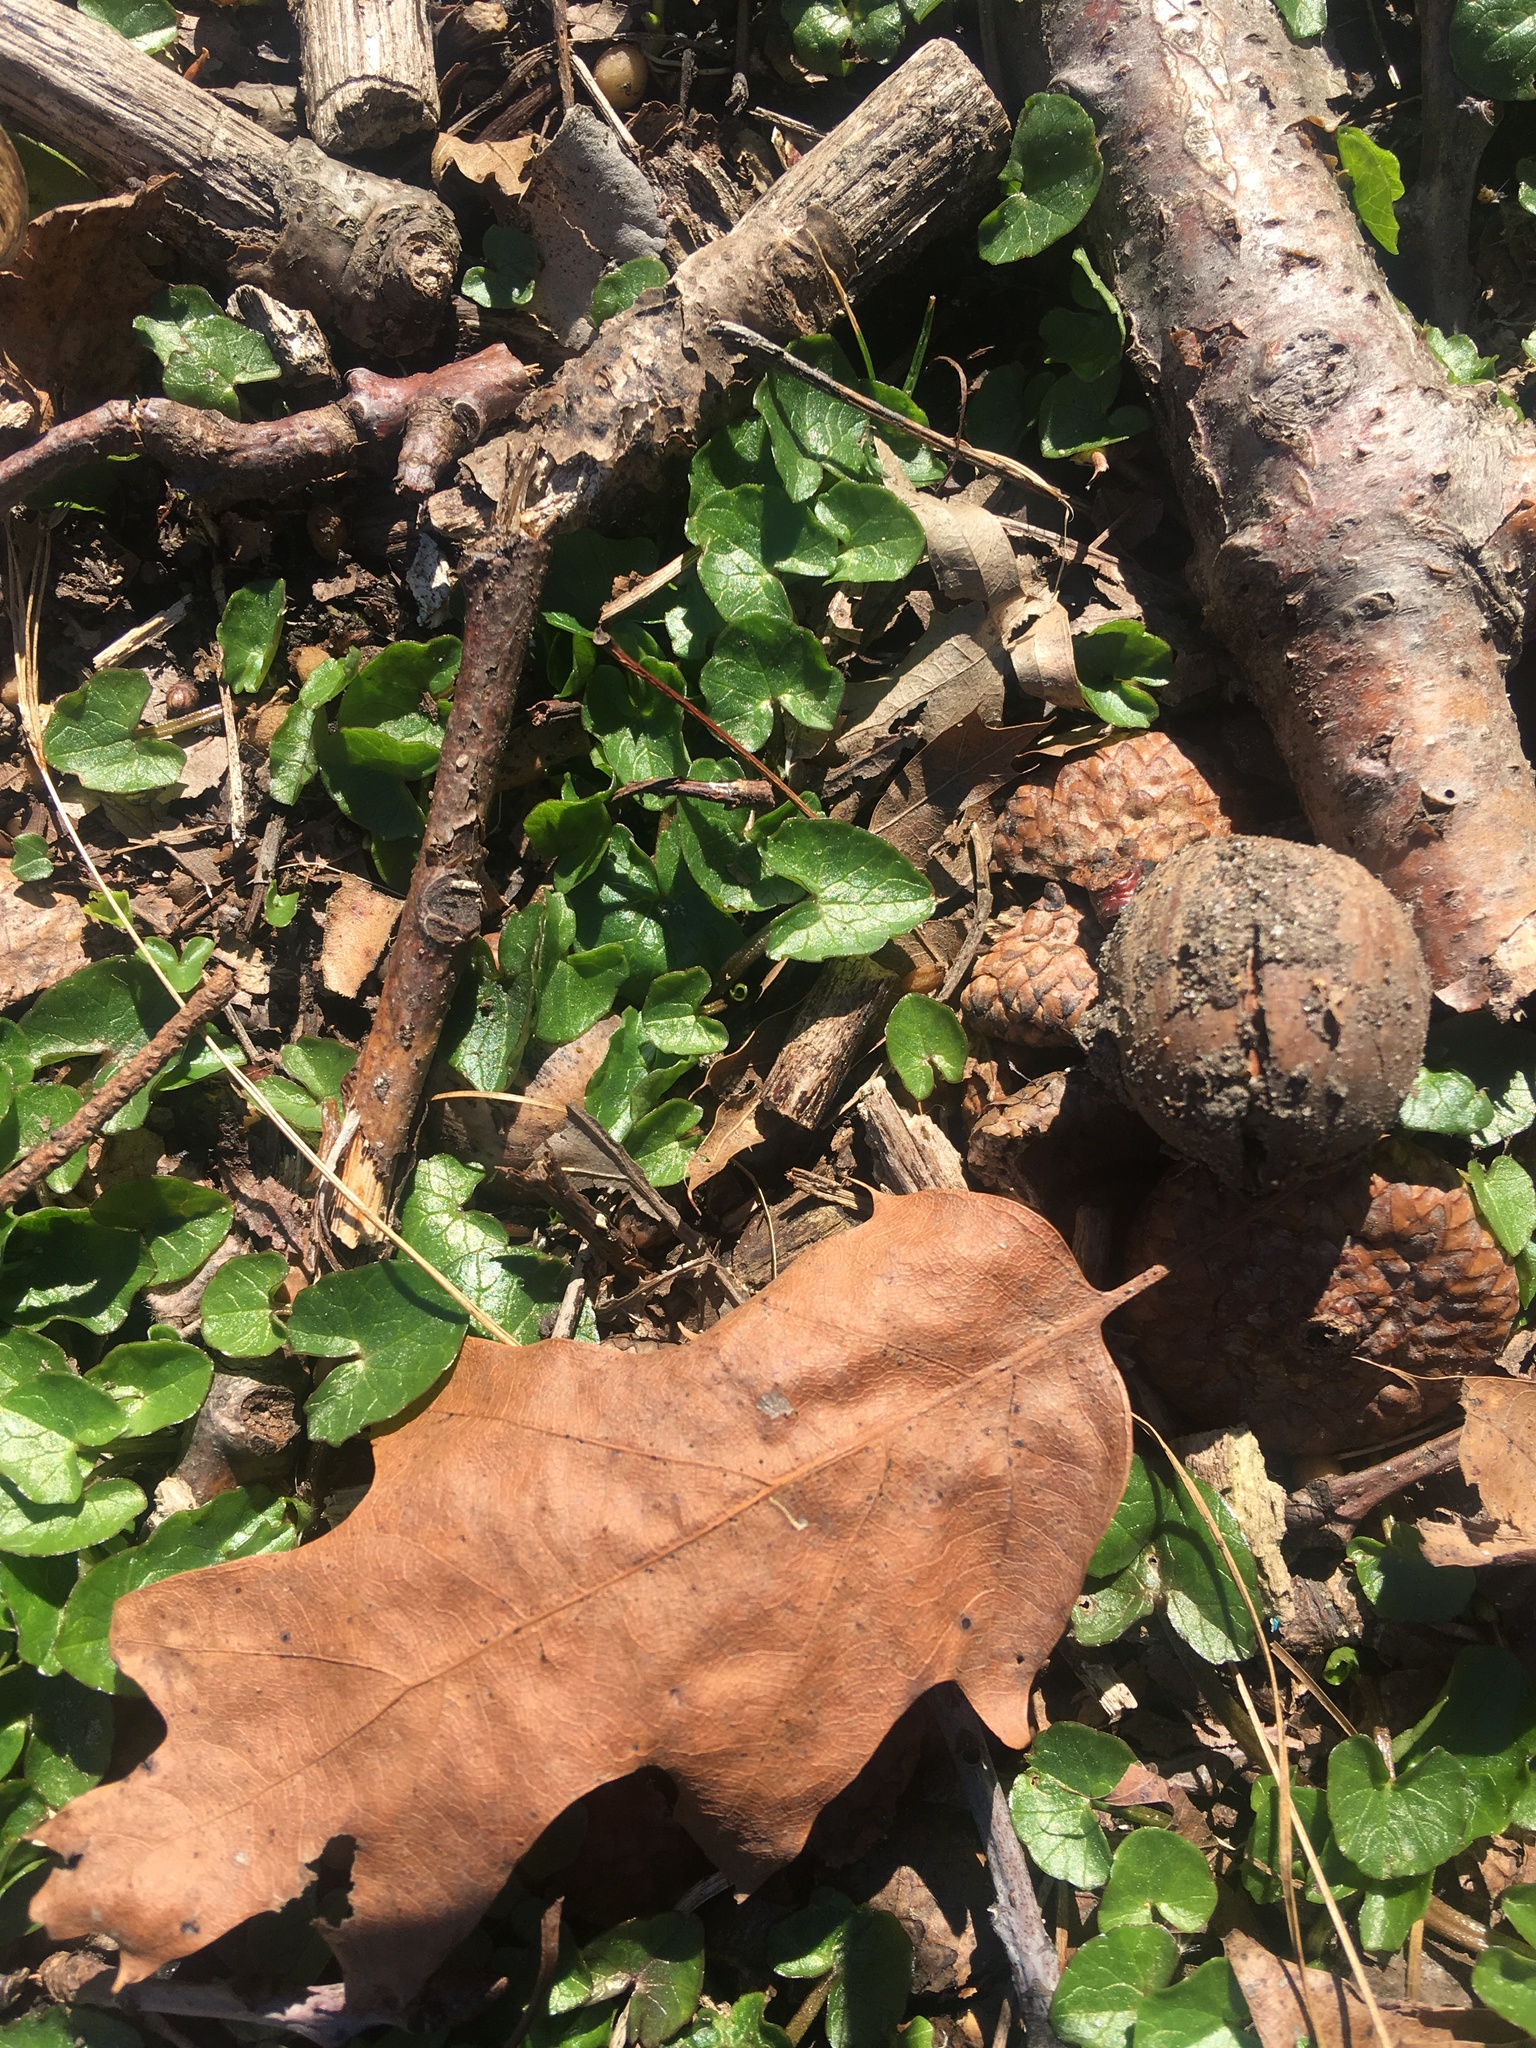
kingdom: Plantae
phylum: Tracheophyta
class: Magnoliopsida
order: Ranunculales
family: Ranunculaceae
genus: Ficaria
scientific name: Ficaria verna
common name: Lesser celandine
